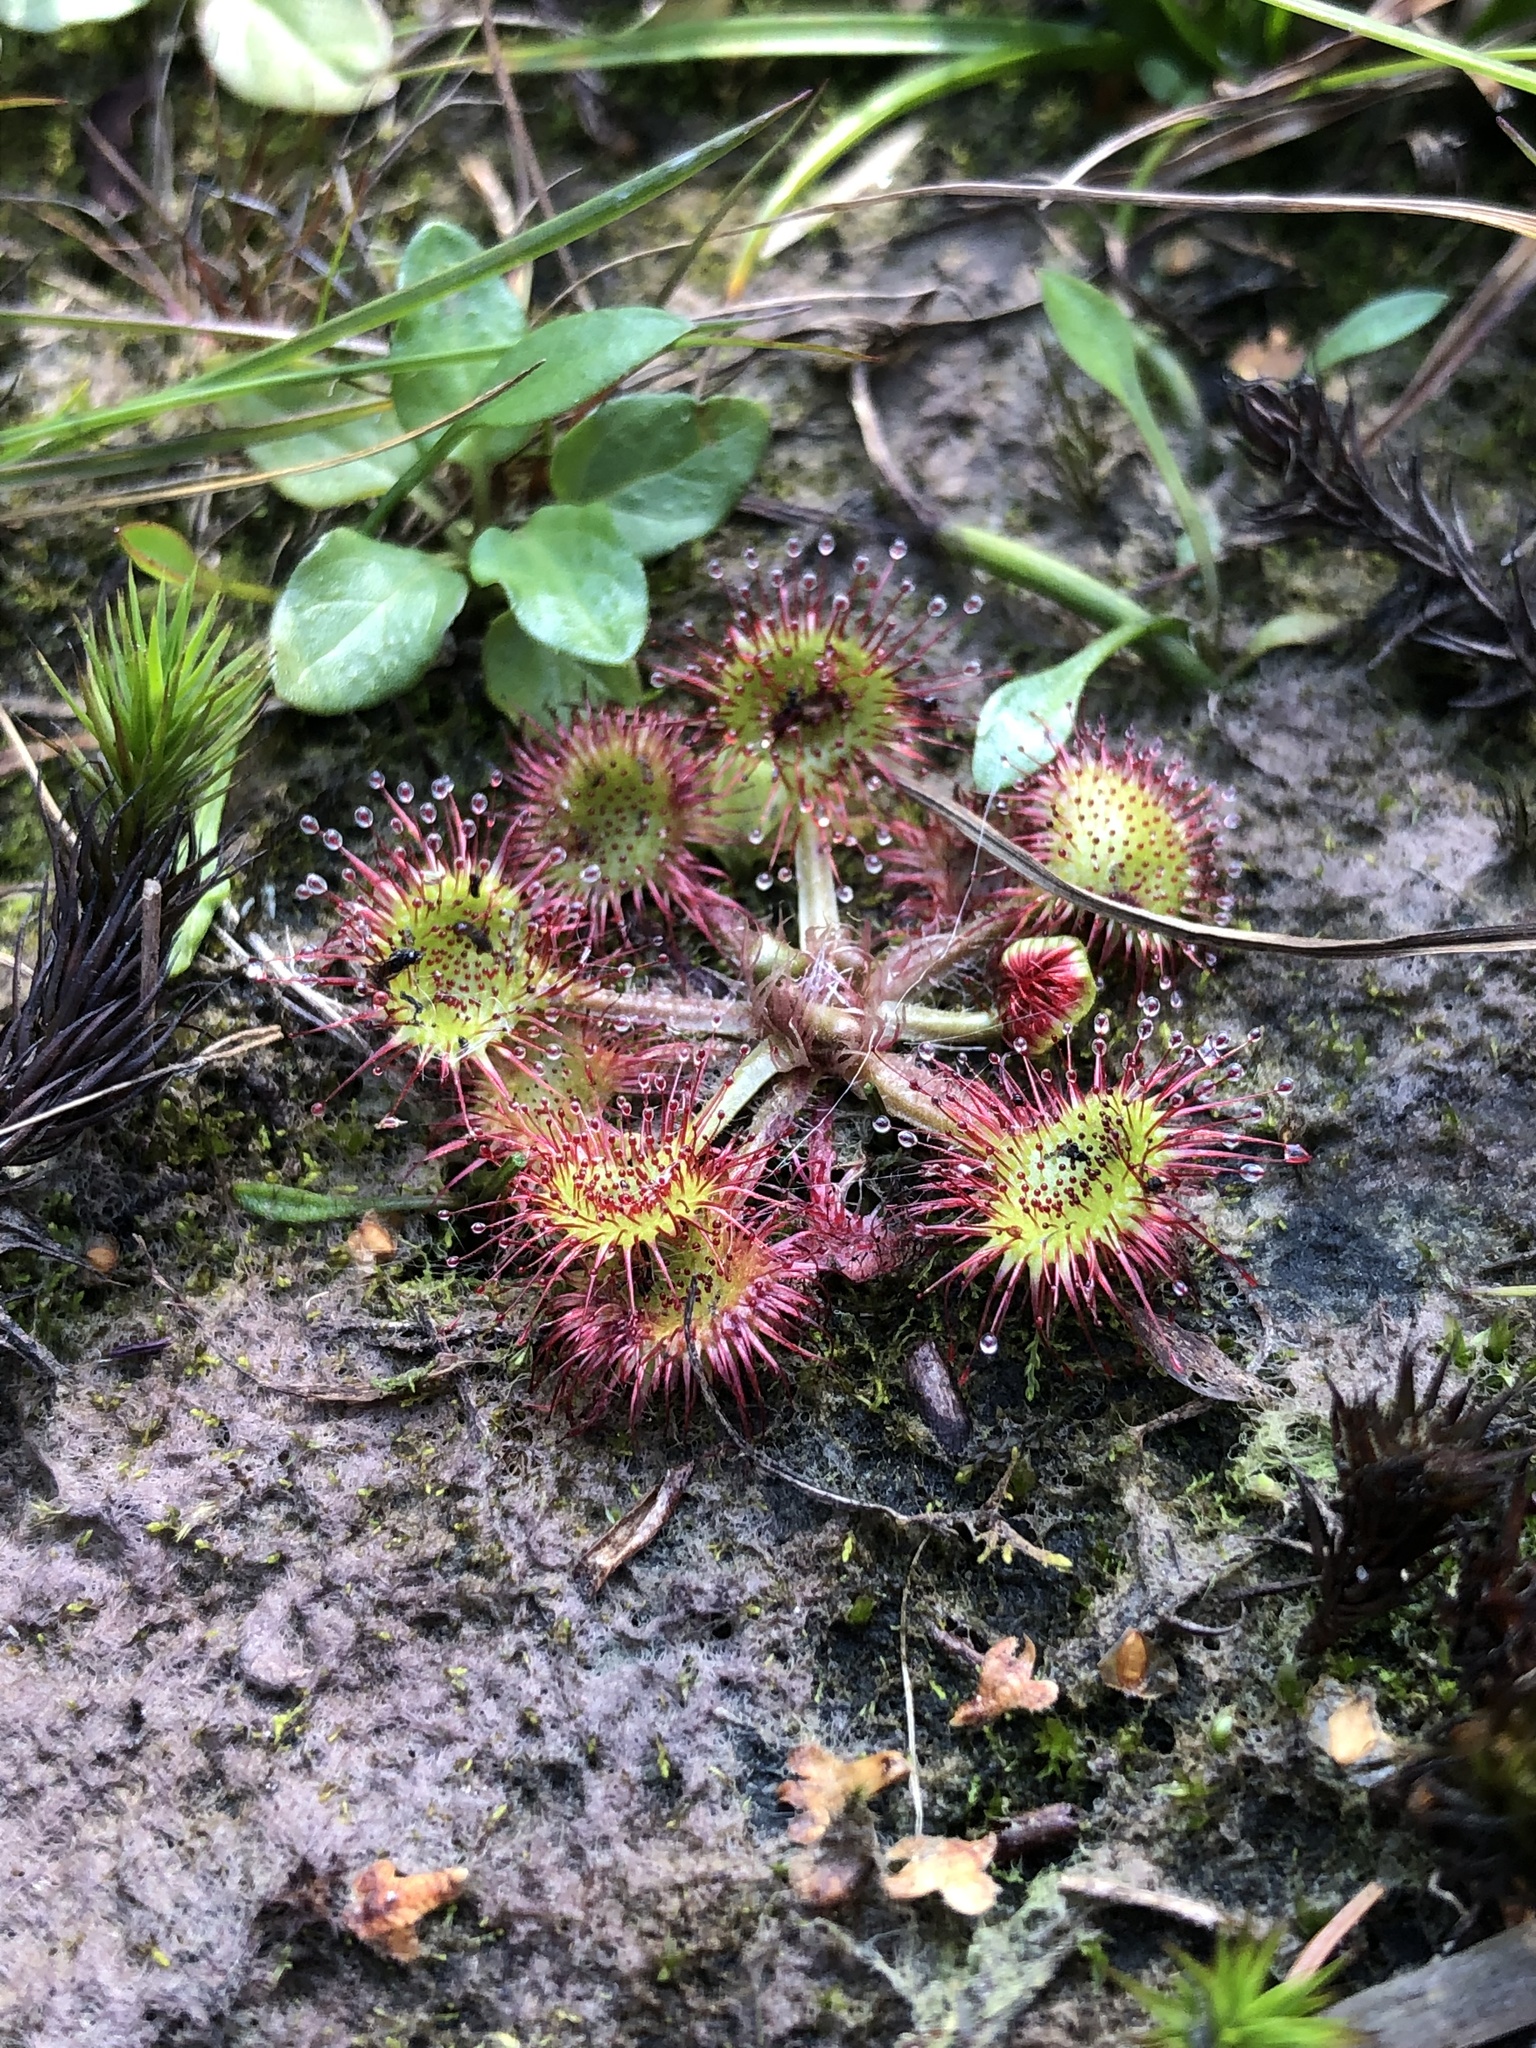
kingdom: Plantae
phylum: Tracheophyta
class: Magnoliopsida
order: Caryophyllales
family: Droseraceae
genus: Drosera
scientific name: Drosera rotundifolia
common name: Round-leaved sundew
